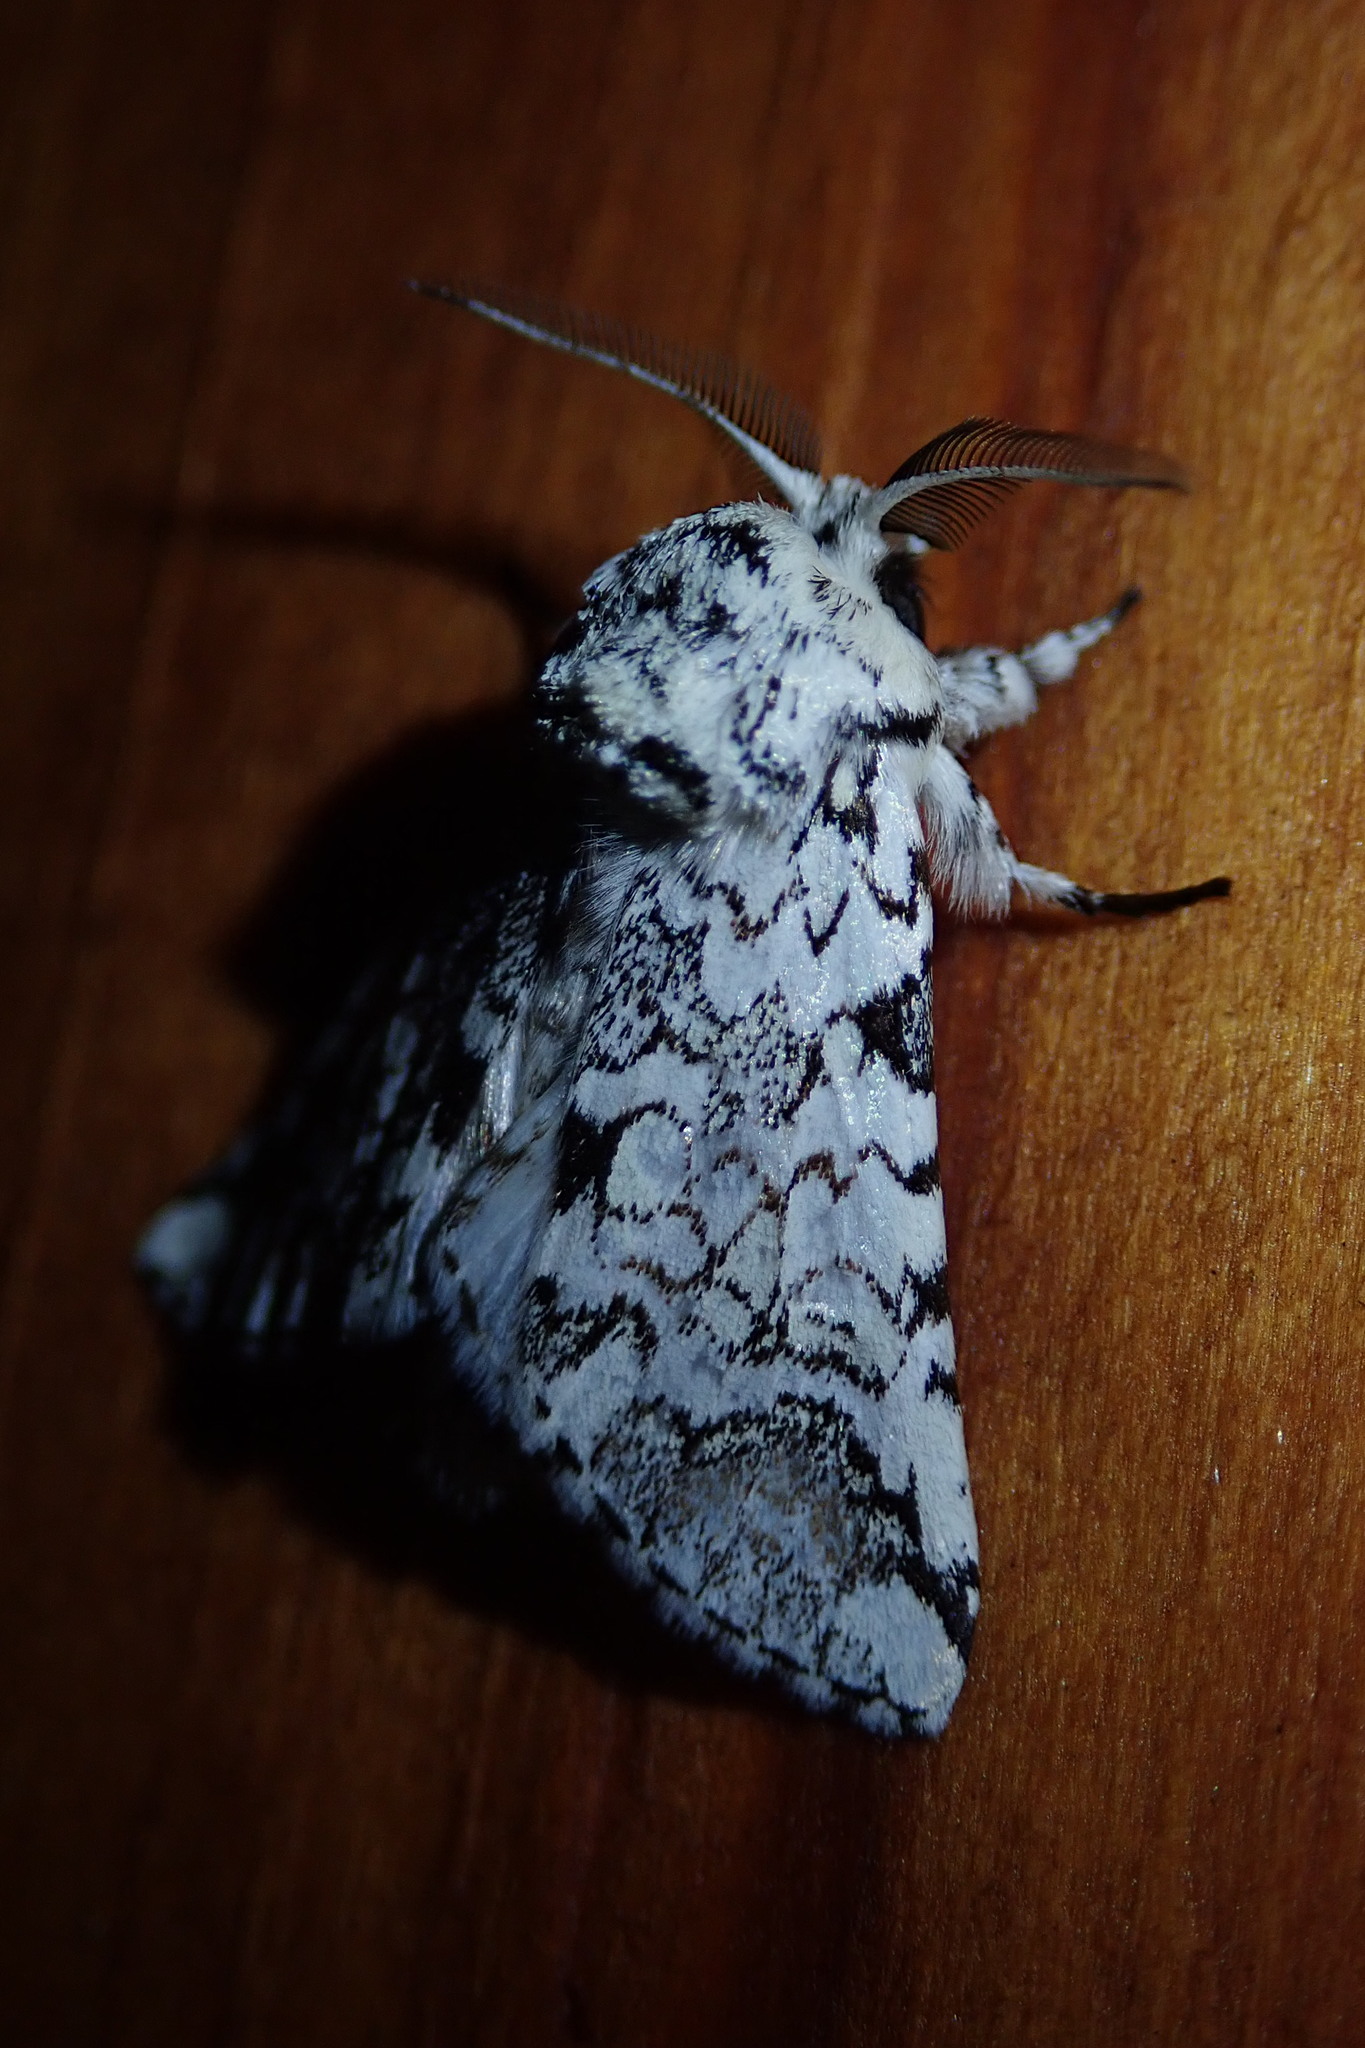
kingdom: Animalia
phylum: Arthropoda
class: Insecta
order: Lepidoptera
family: Notodontidae
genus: Pseudorethona
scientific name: Pseudorethona albicans
